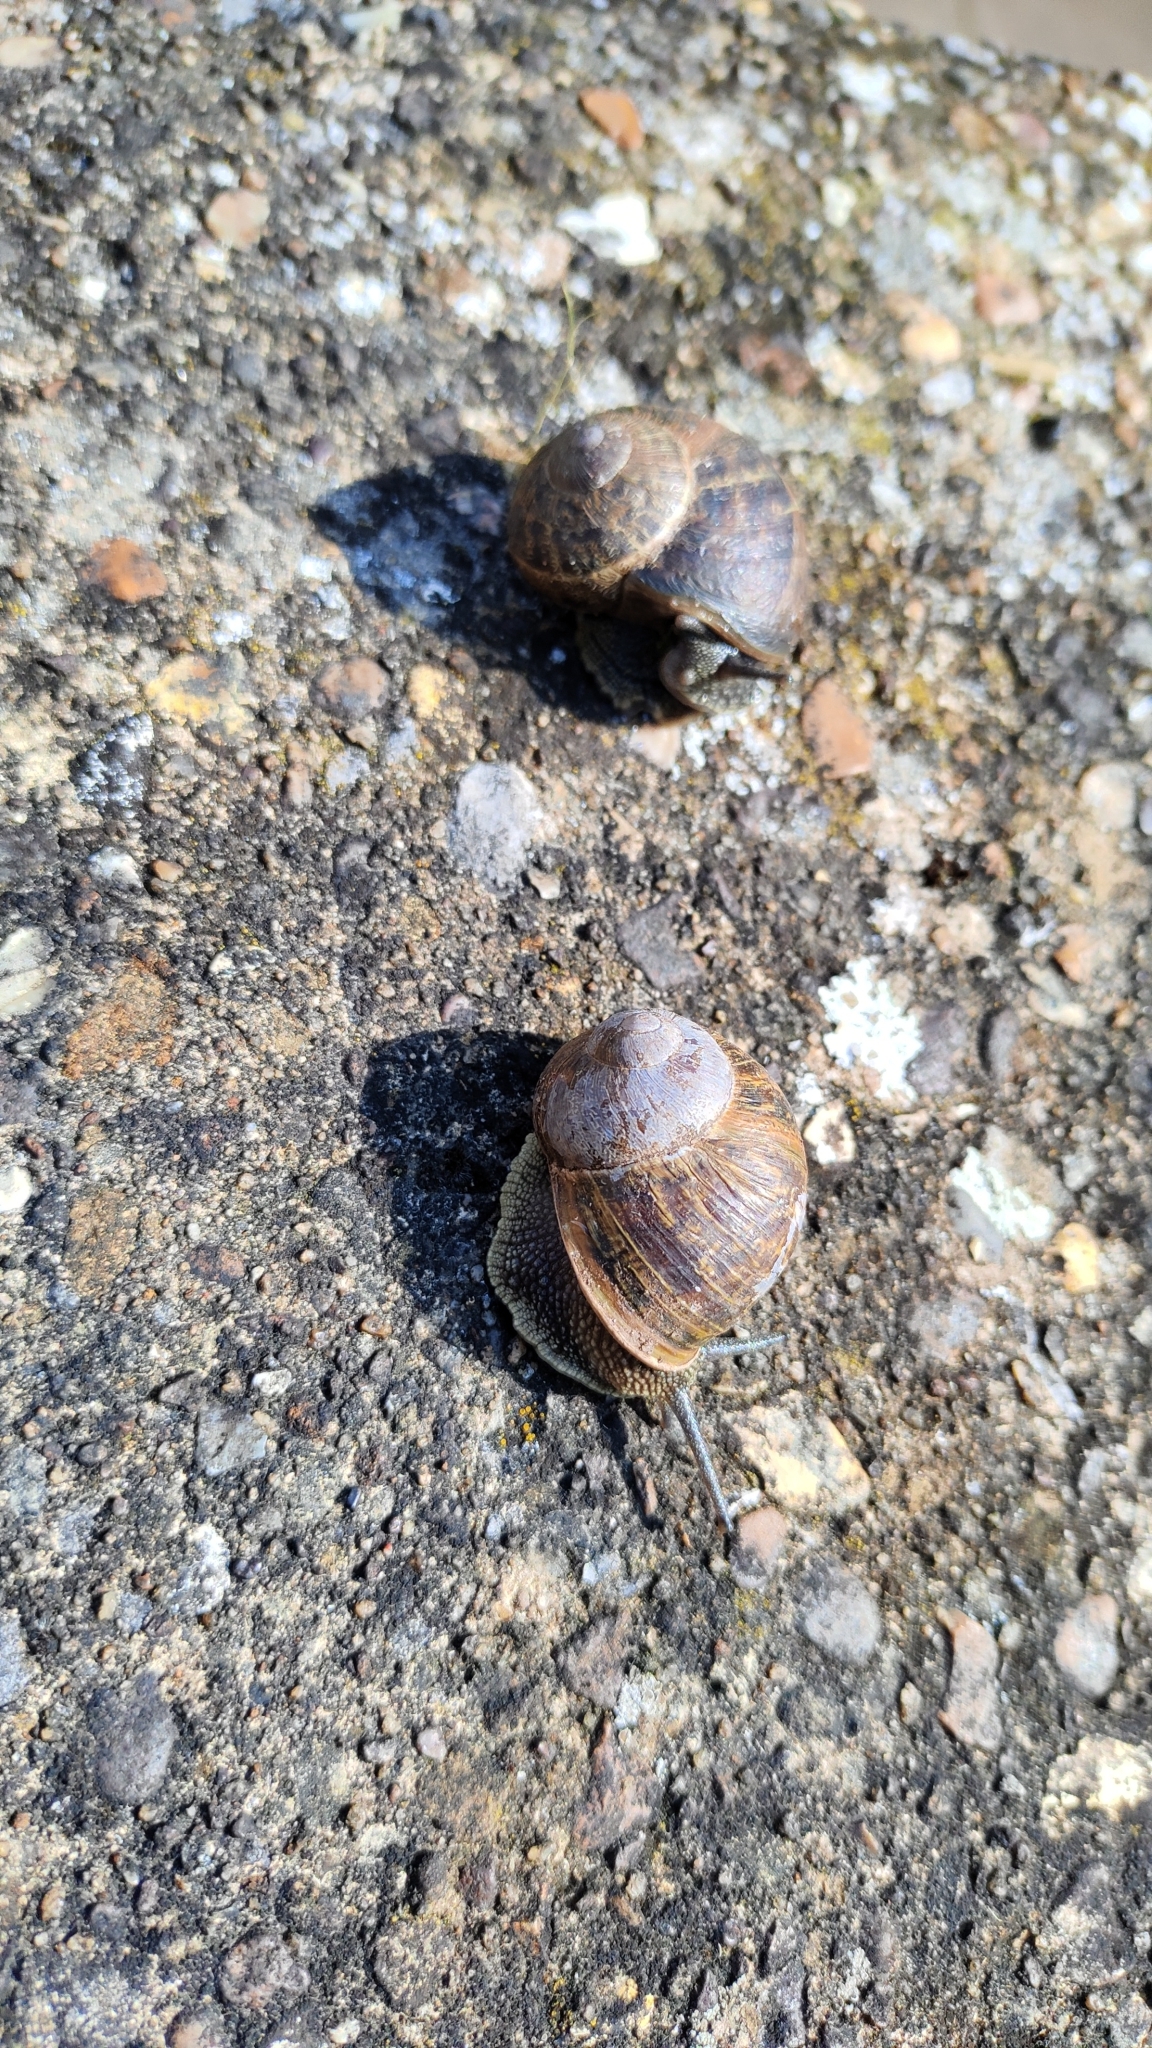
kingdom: Animalia
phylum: Mollusca
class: Gastropoda
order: Stylommatophora
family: Helicidae
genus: Cornu
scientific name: Cornu aspersum
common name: Brown garden snail
